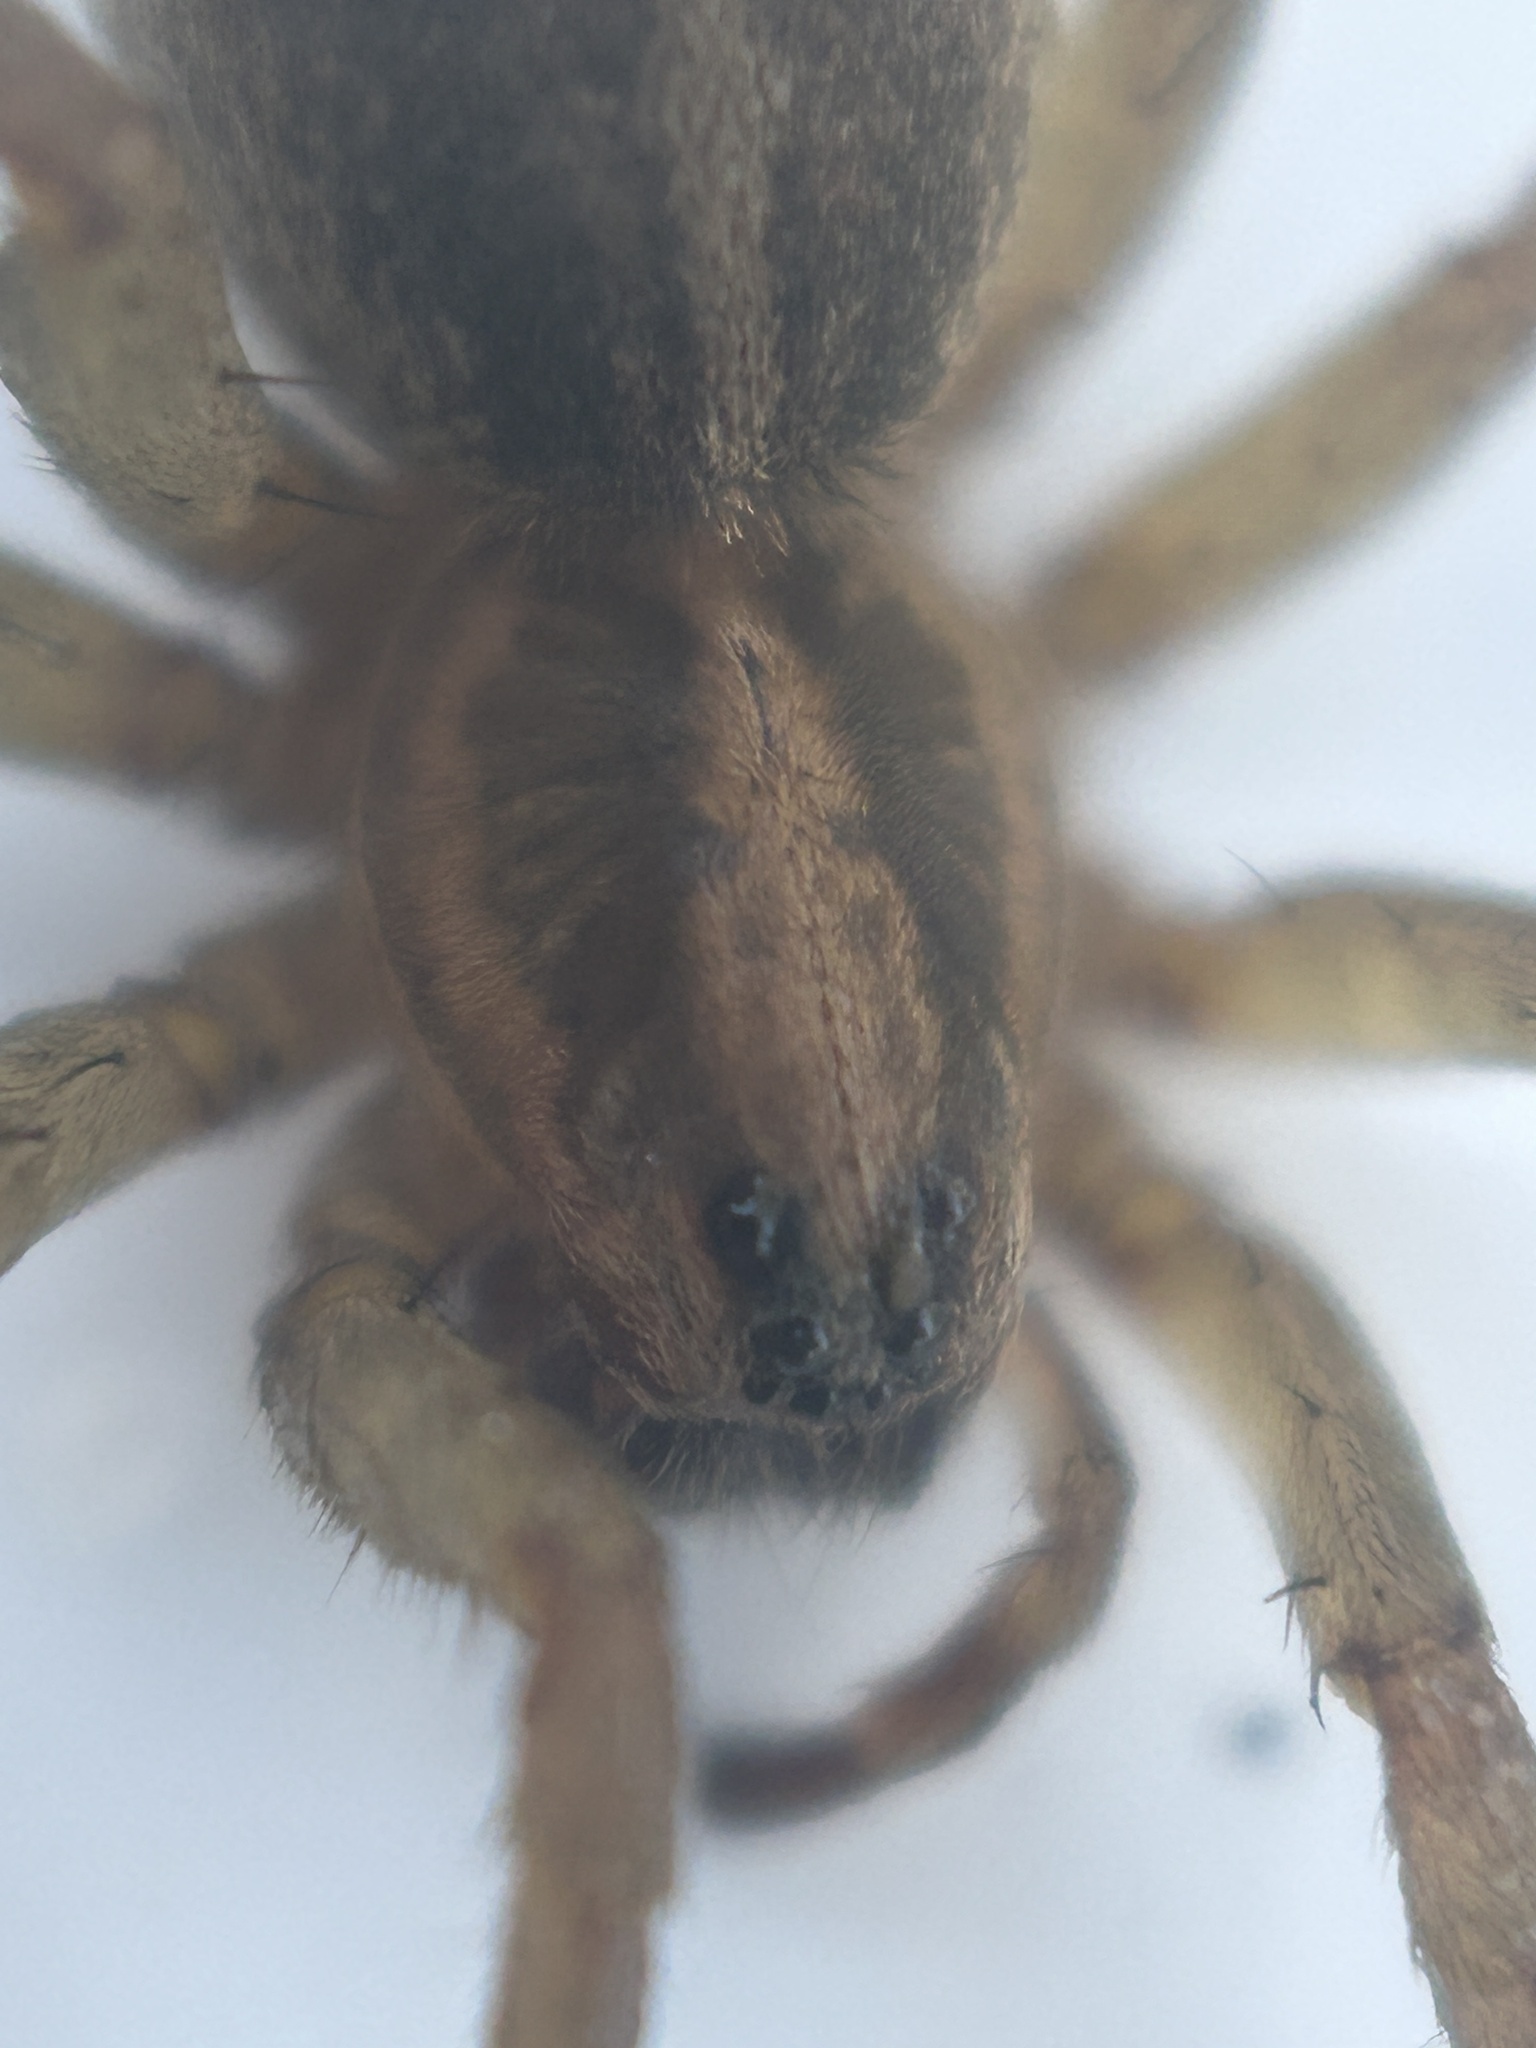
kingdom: Animalia
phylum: Arthropoda
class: Arachnida
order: Araneae
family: Lycosidae
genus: Trochosa
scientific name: Trochosa ruricola
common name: Spider
